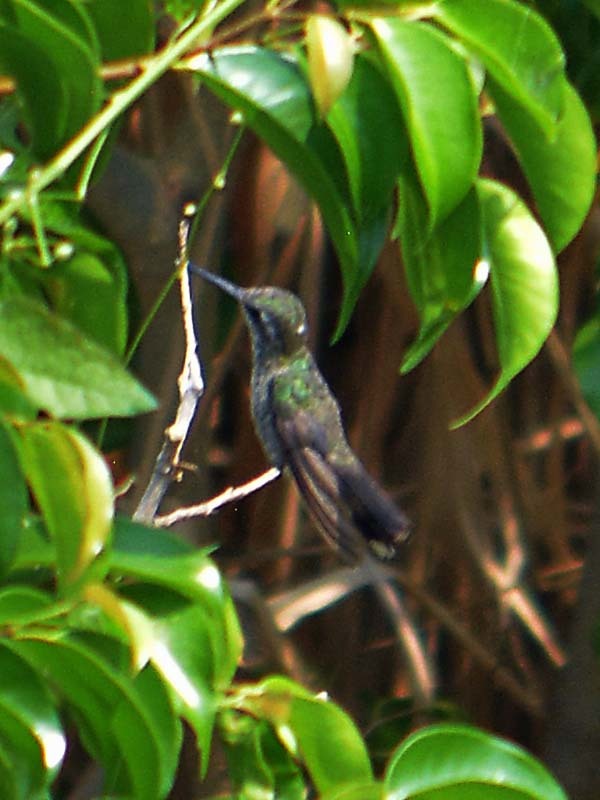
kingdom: Animalia
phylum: Chordata
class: Aves
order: Apodiformes
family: Trochilidae
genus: Cynanthus
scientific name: Cynanthus latirostris
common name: Broad-billed hummingbird
